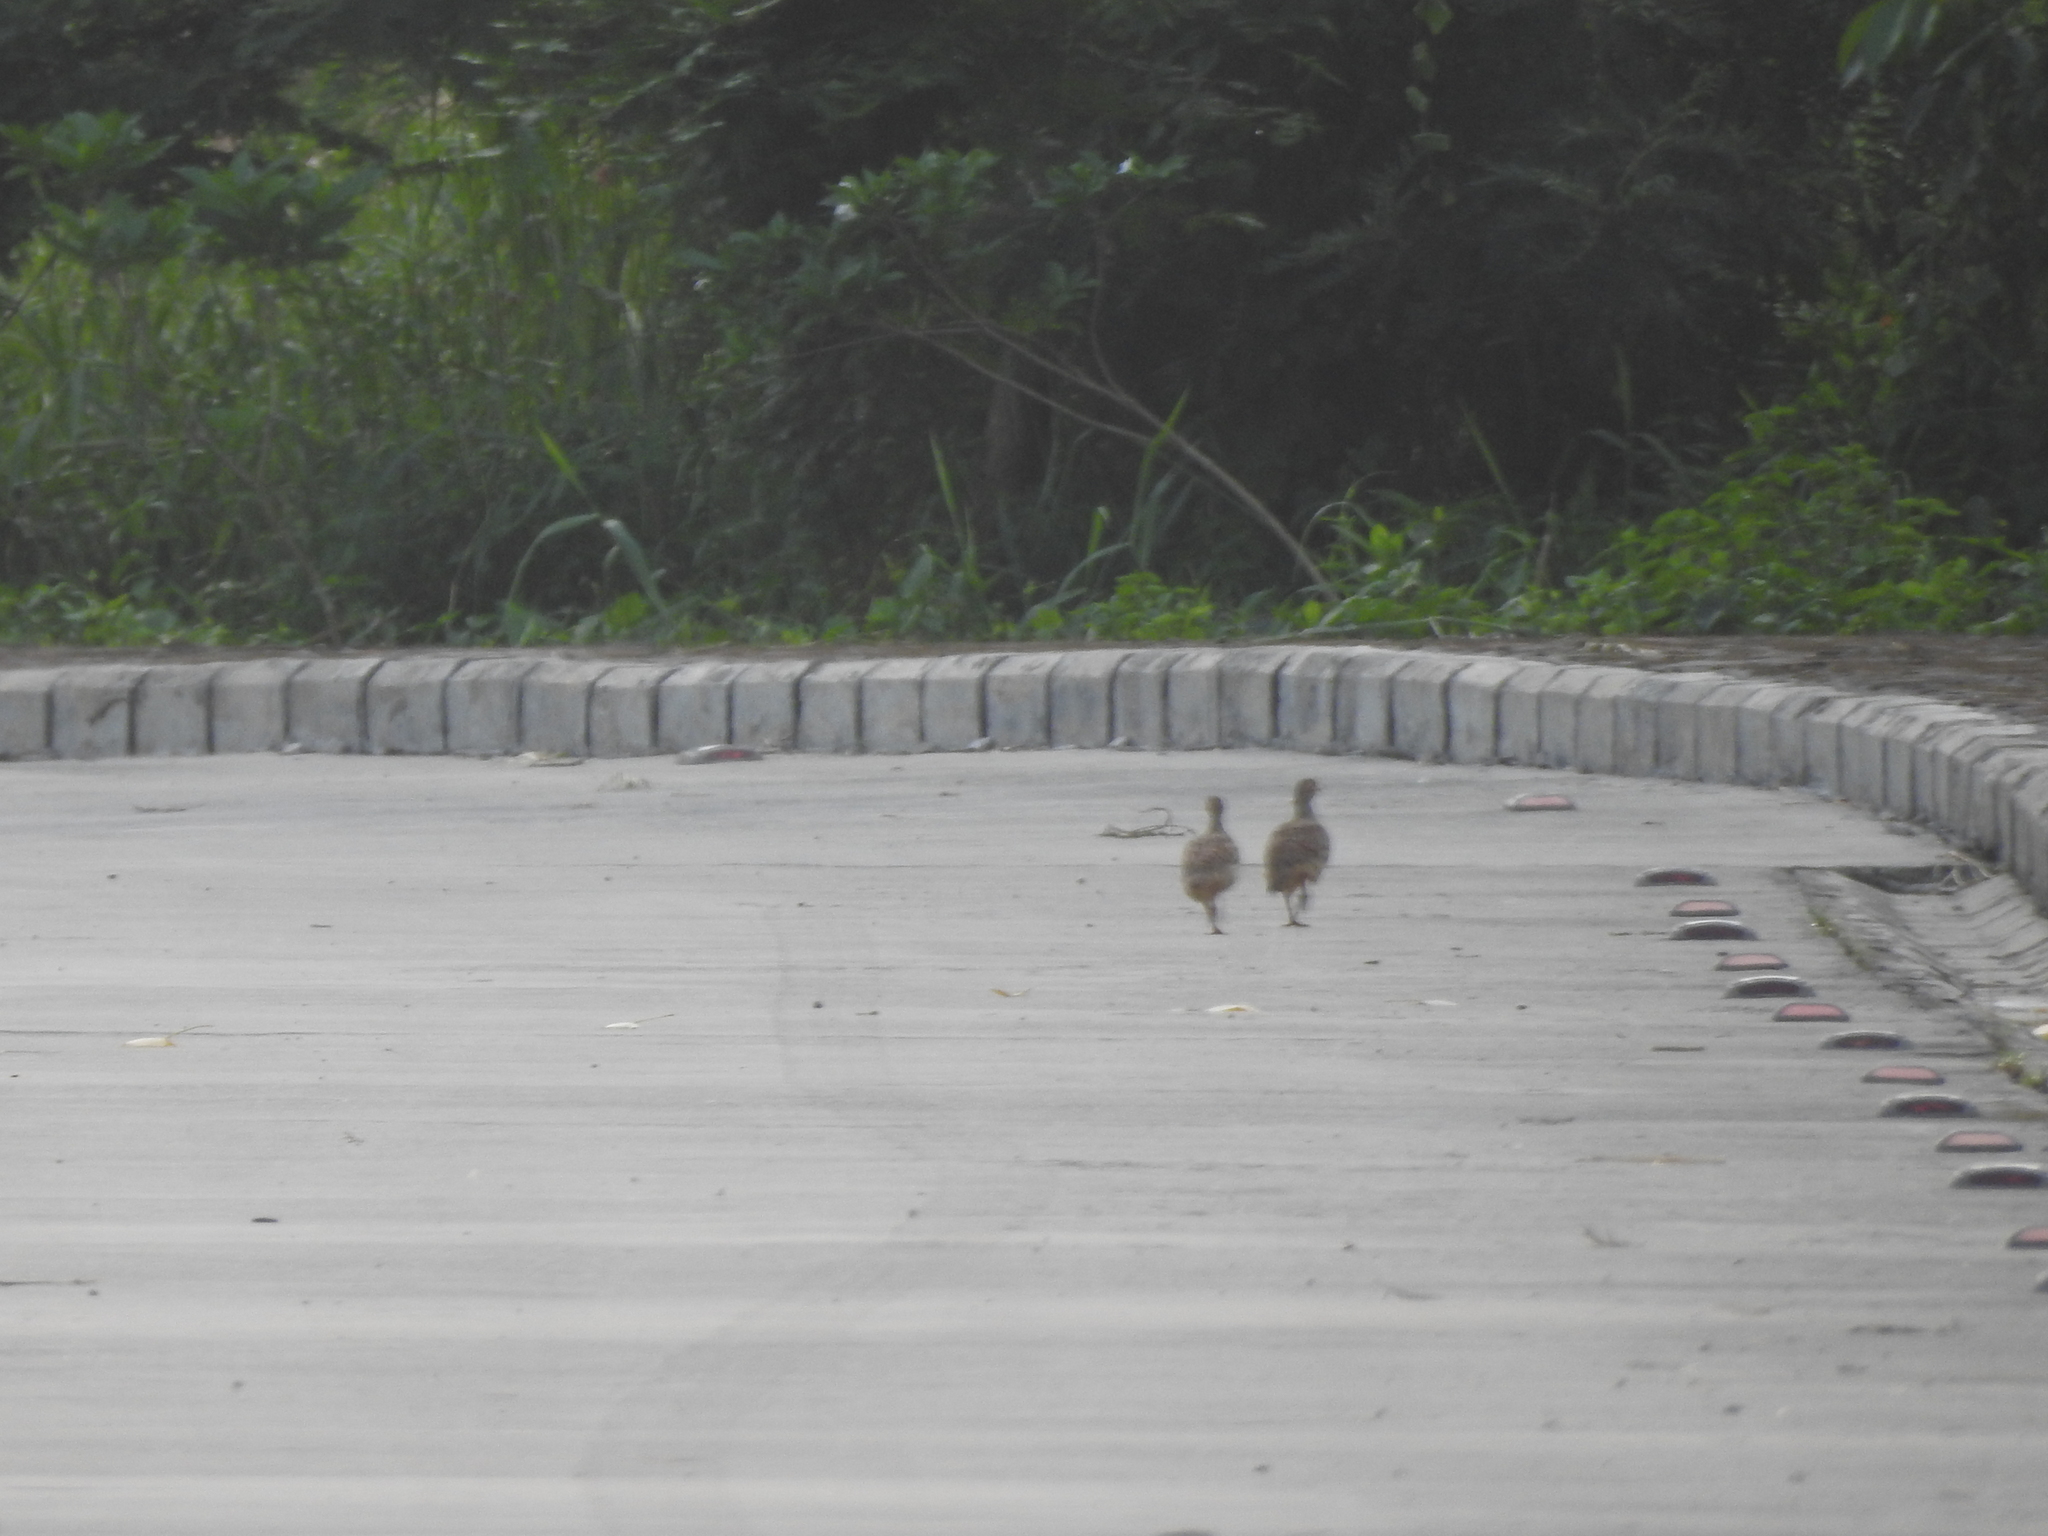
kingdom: Animalia
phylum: Chordata
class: Aves
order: Galliformes
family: Phasianidae
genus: Ortygornis
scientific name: Ortygornis pondicerianus
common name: Grey francolin
